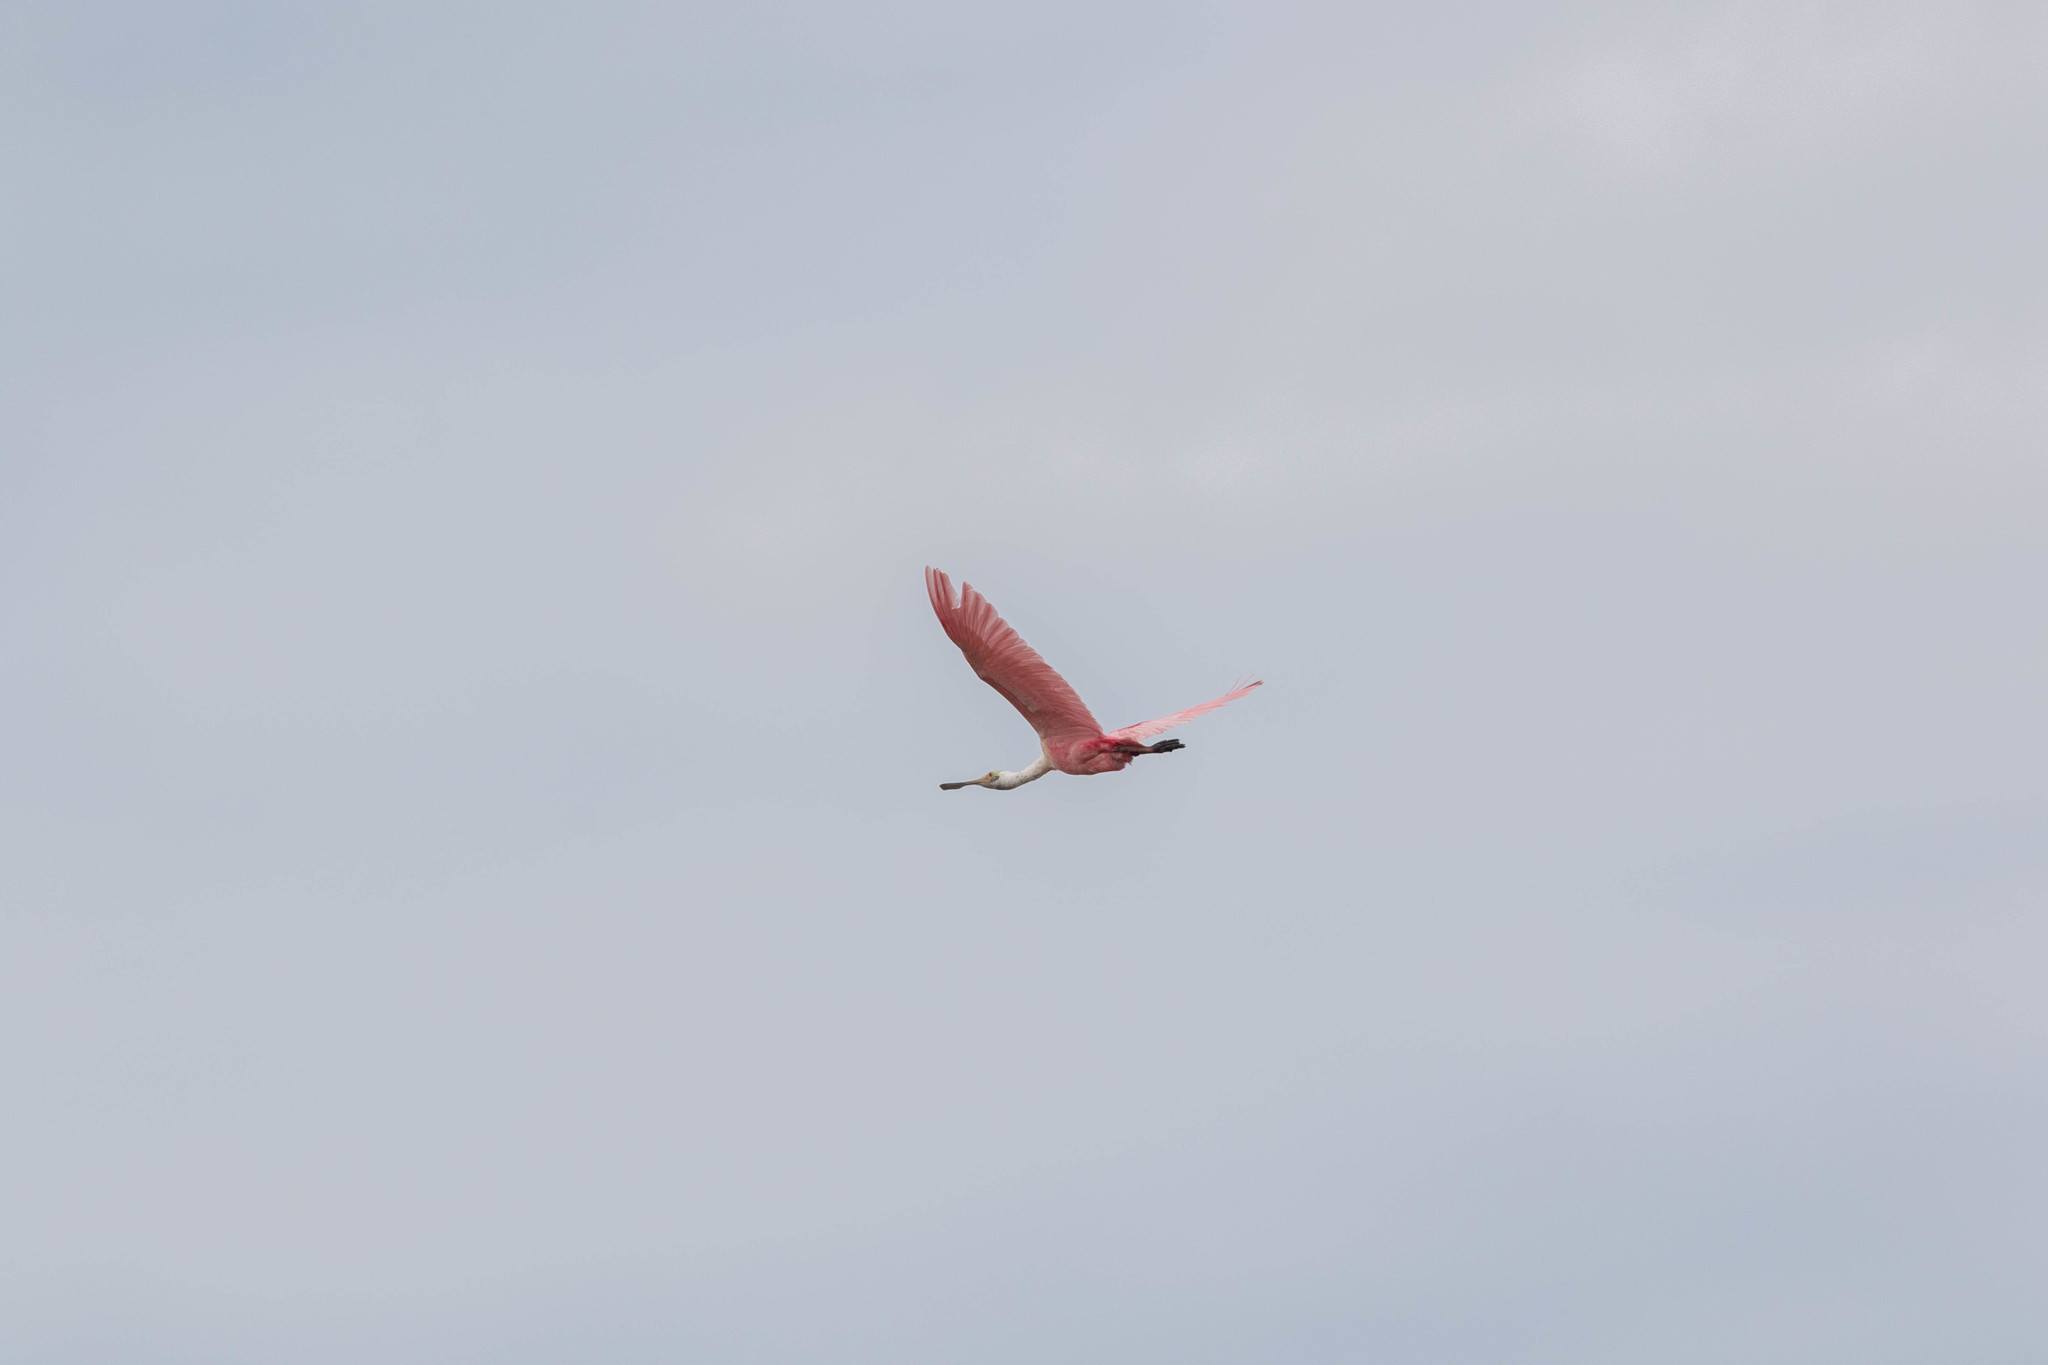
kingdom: Animalia
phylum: Chordata
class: Aves
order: Pelecaniformes
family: Threskiornithidae
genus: Platalea
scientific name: Platalea ajaja
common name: Roseate spoonbill
